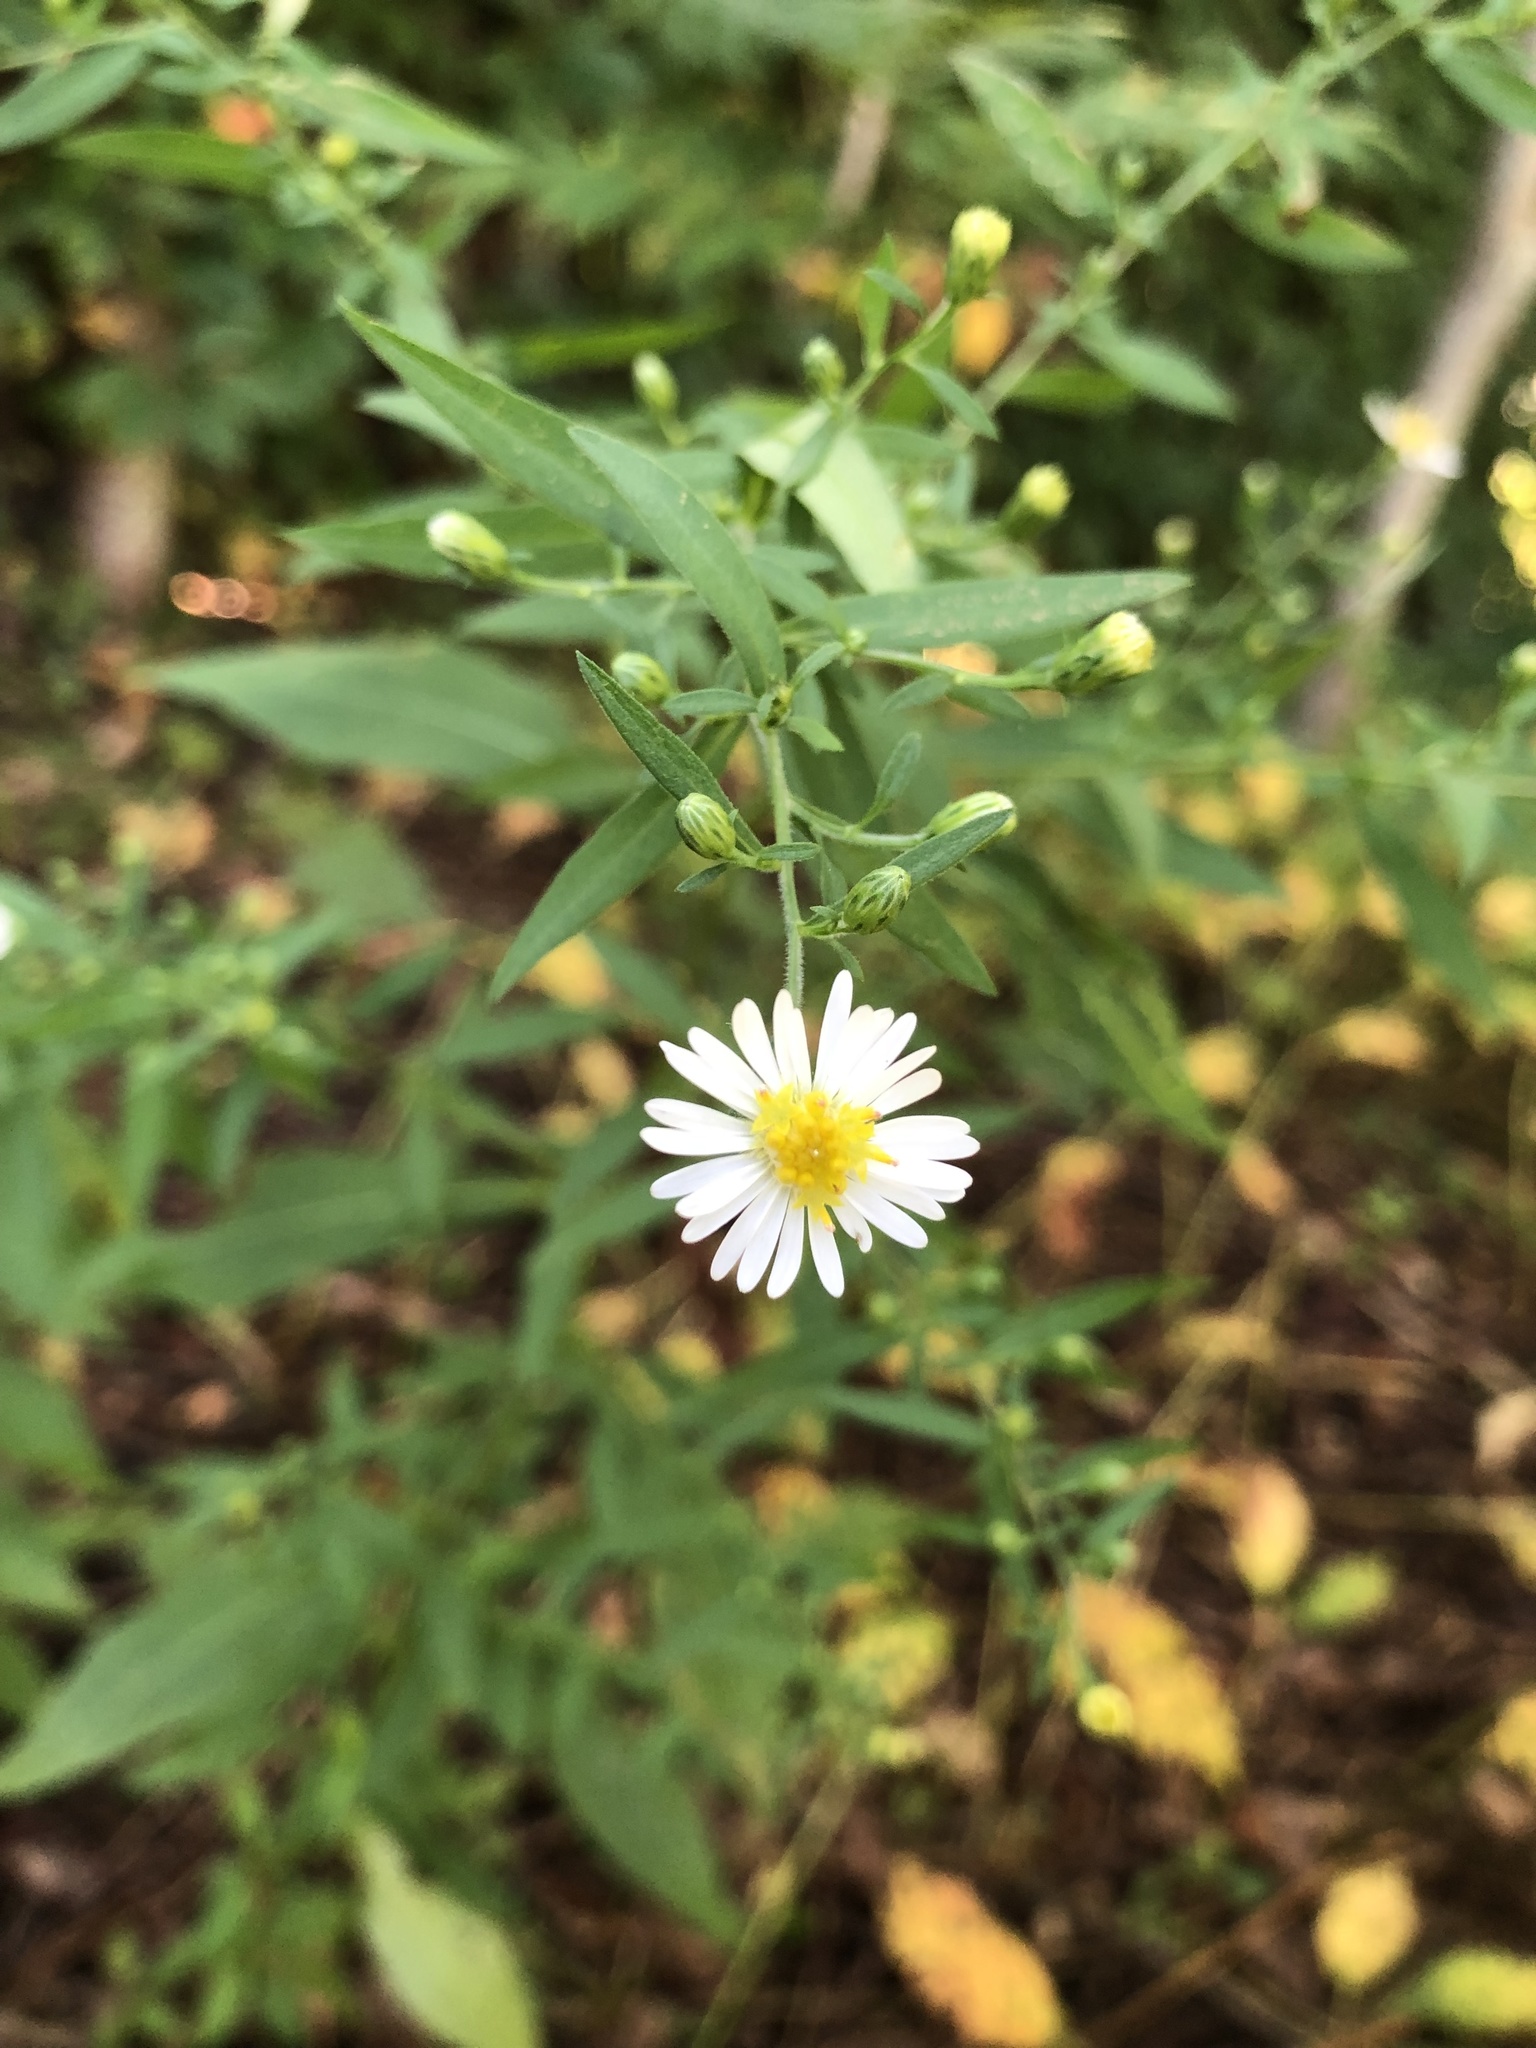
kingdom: Plantae
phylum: Tracheophyta
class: Magnoliopsida
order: Asterales
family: Asteraceae
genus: Symphyotrichum
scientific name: Symphyotrichum ontarionis
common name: Bottomland aster
